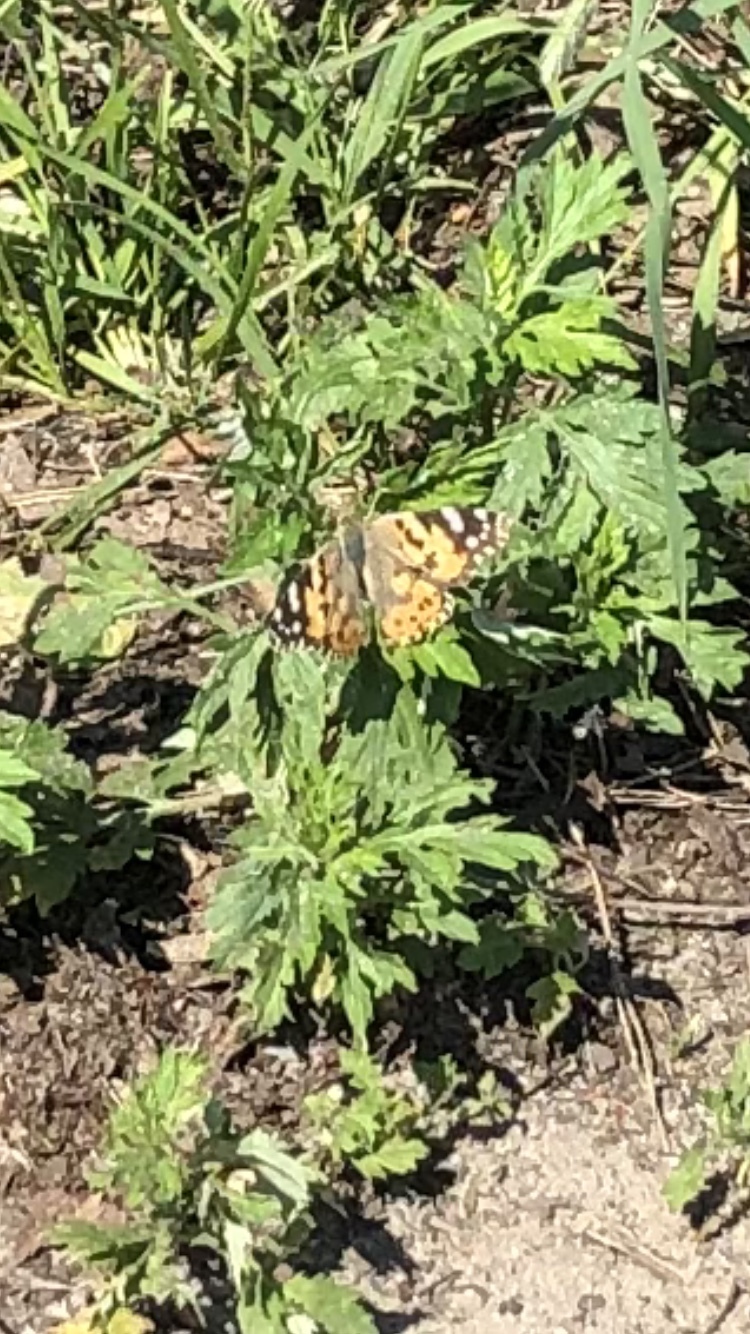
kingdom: Animalia
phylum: Arthropoda
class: Insecta
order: Lepidoptera
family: Nymphalidae
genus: Vanessa
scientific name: Vanessa cardui
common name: Painted lady
